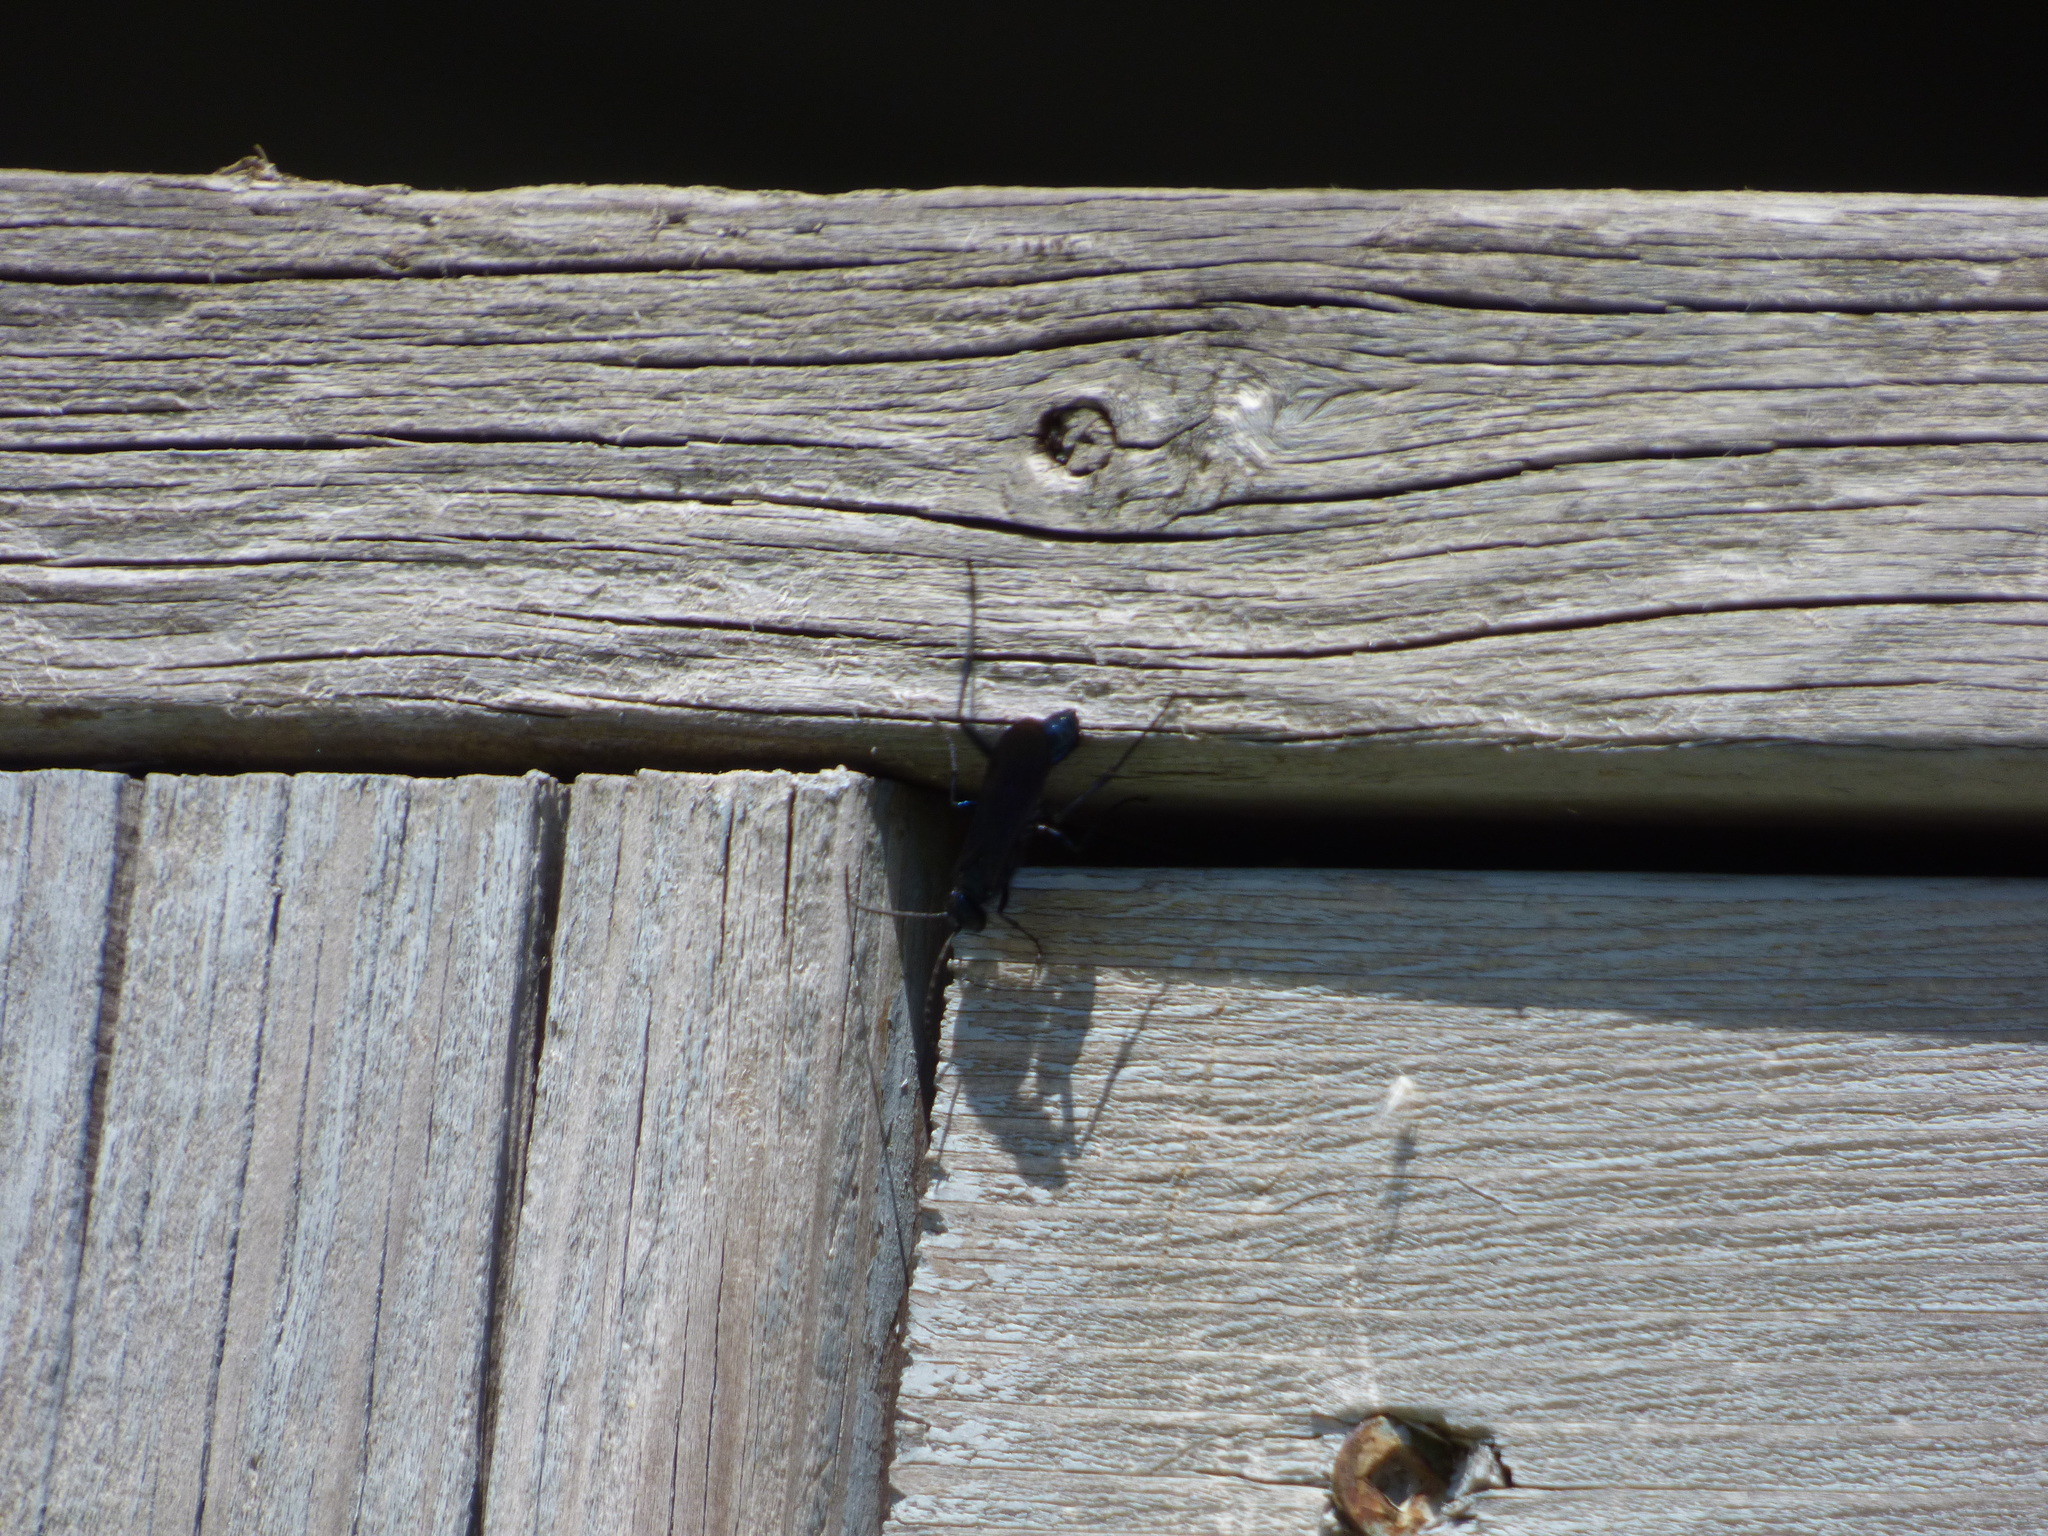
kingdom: Animalia
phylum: Arthropoda
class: Insecta
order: Hymenoptera
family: Sphecidae
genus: Chalybion
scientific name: Chalybion californicum
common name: Mud dauber
